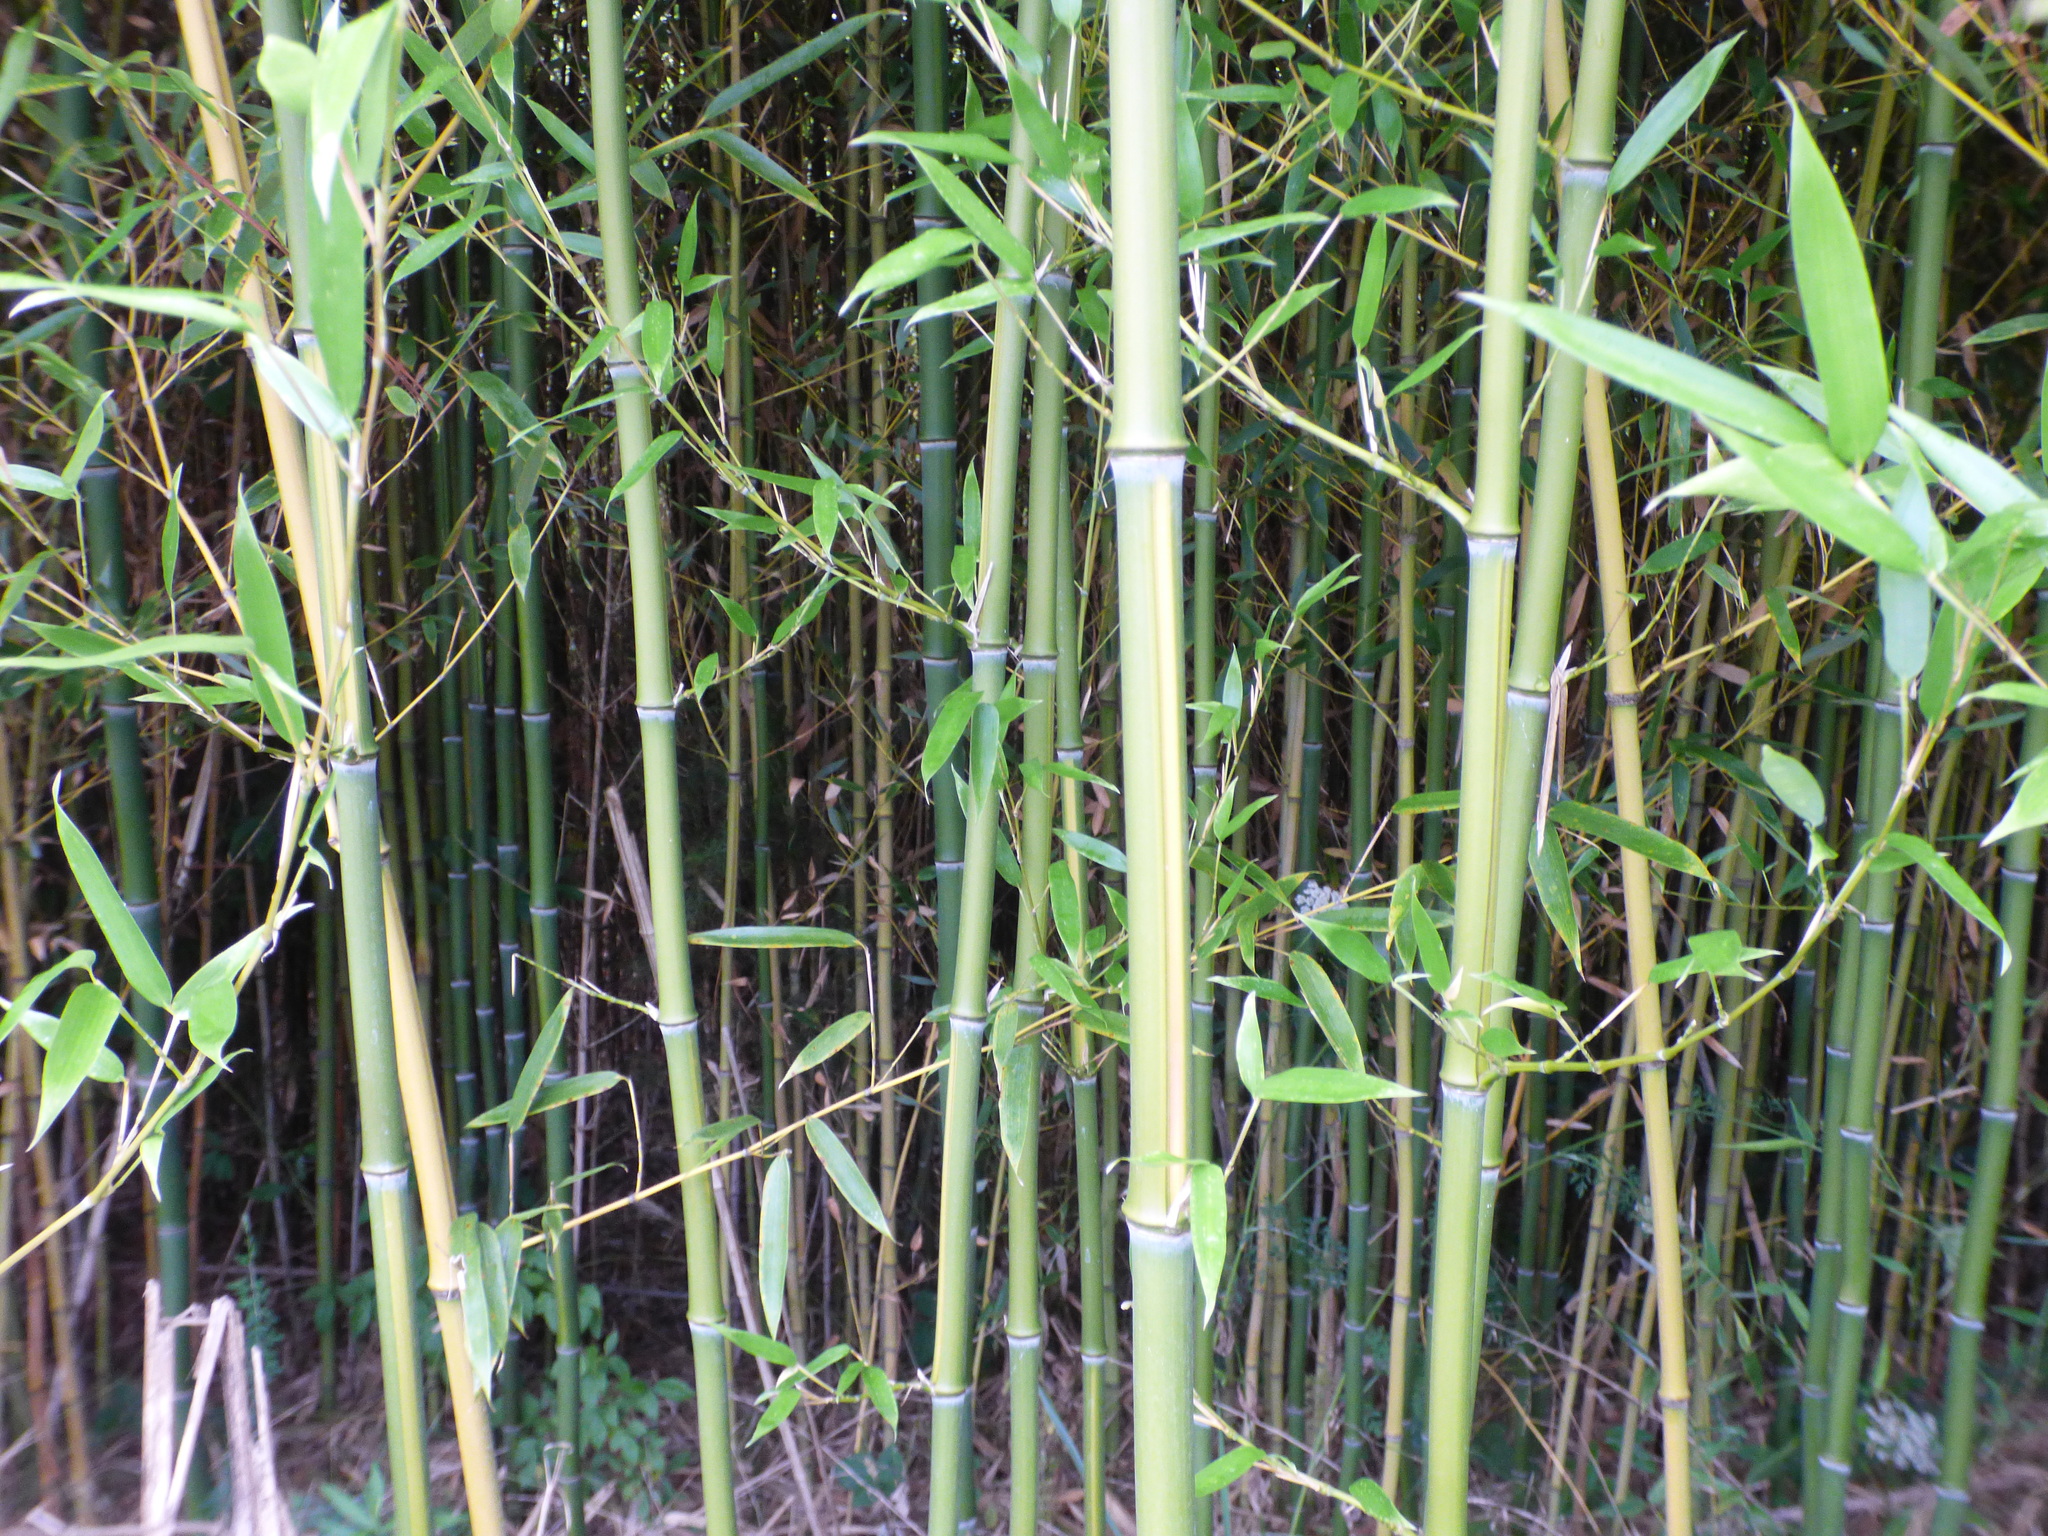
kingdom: Plantae
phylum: Tracheophyta
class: Liliopsida
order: Poales
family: Poaceae
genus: Phyllostachys
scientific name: Phyllostachys aurea
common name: Golden bamboo
